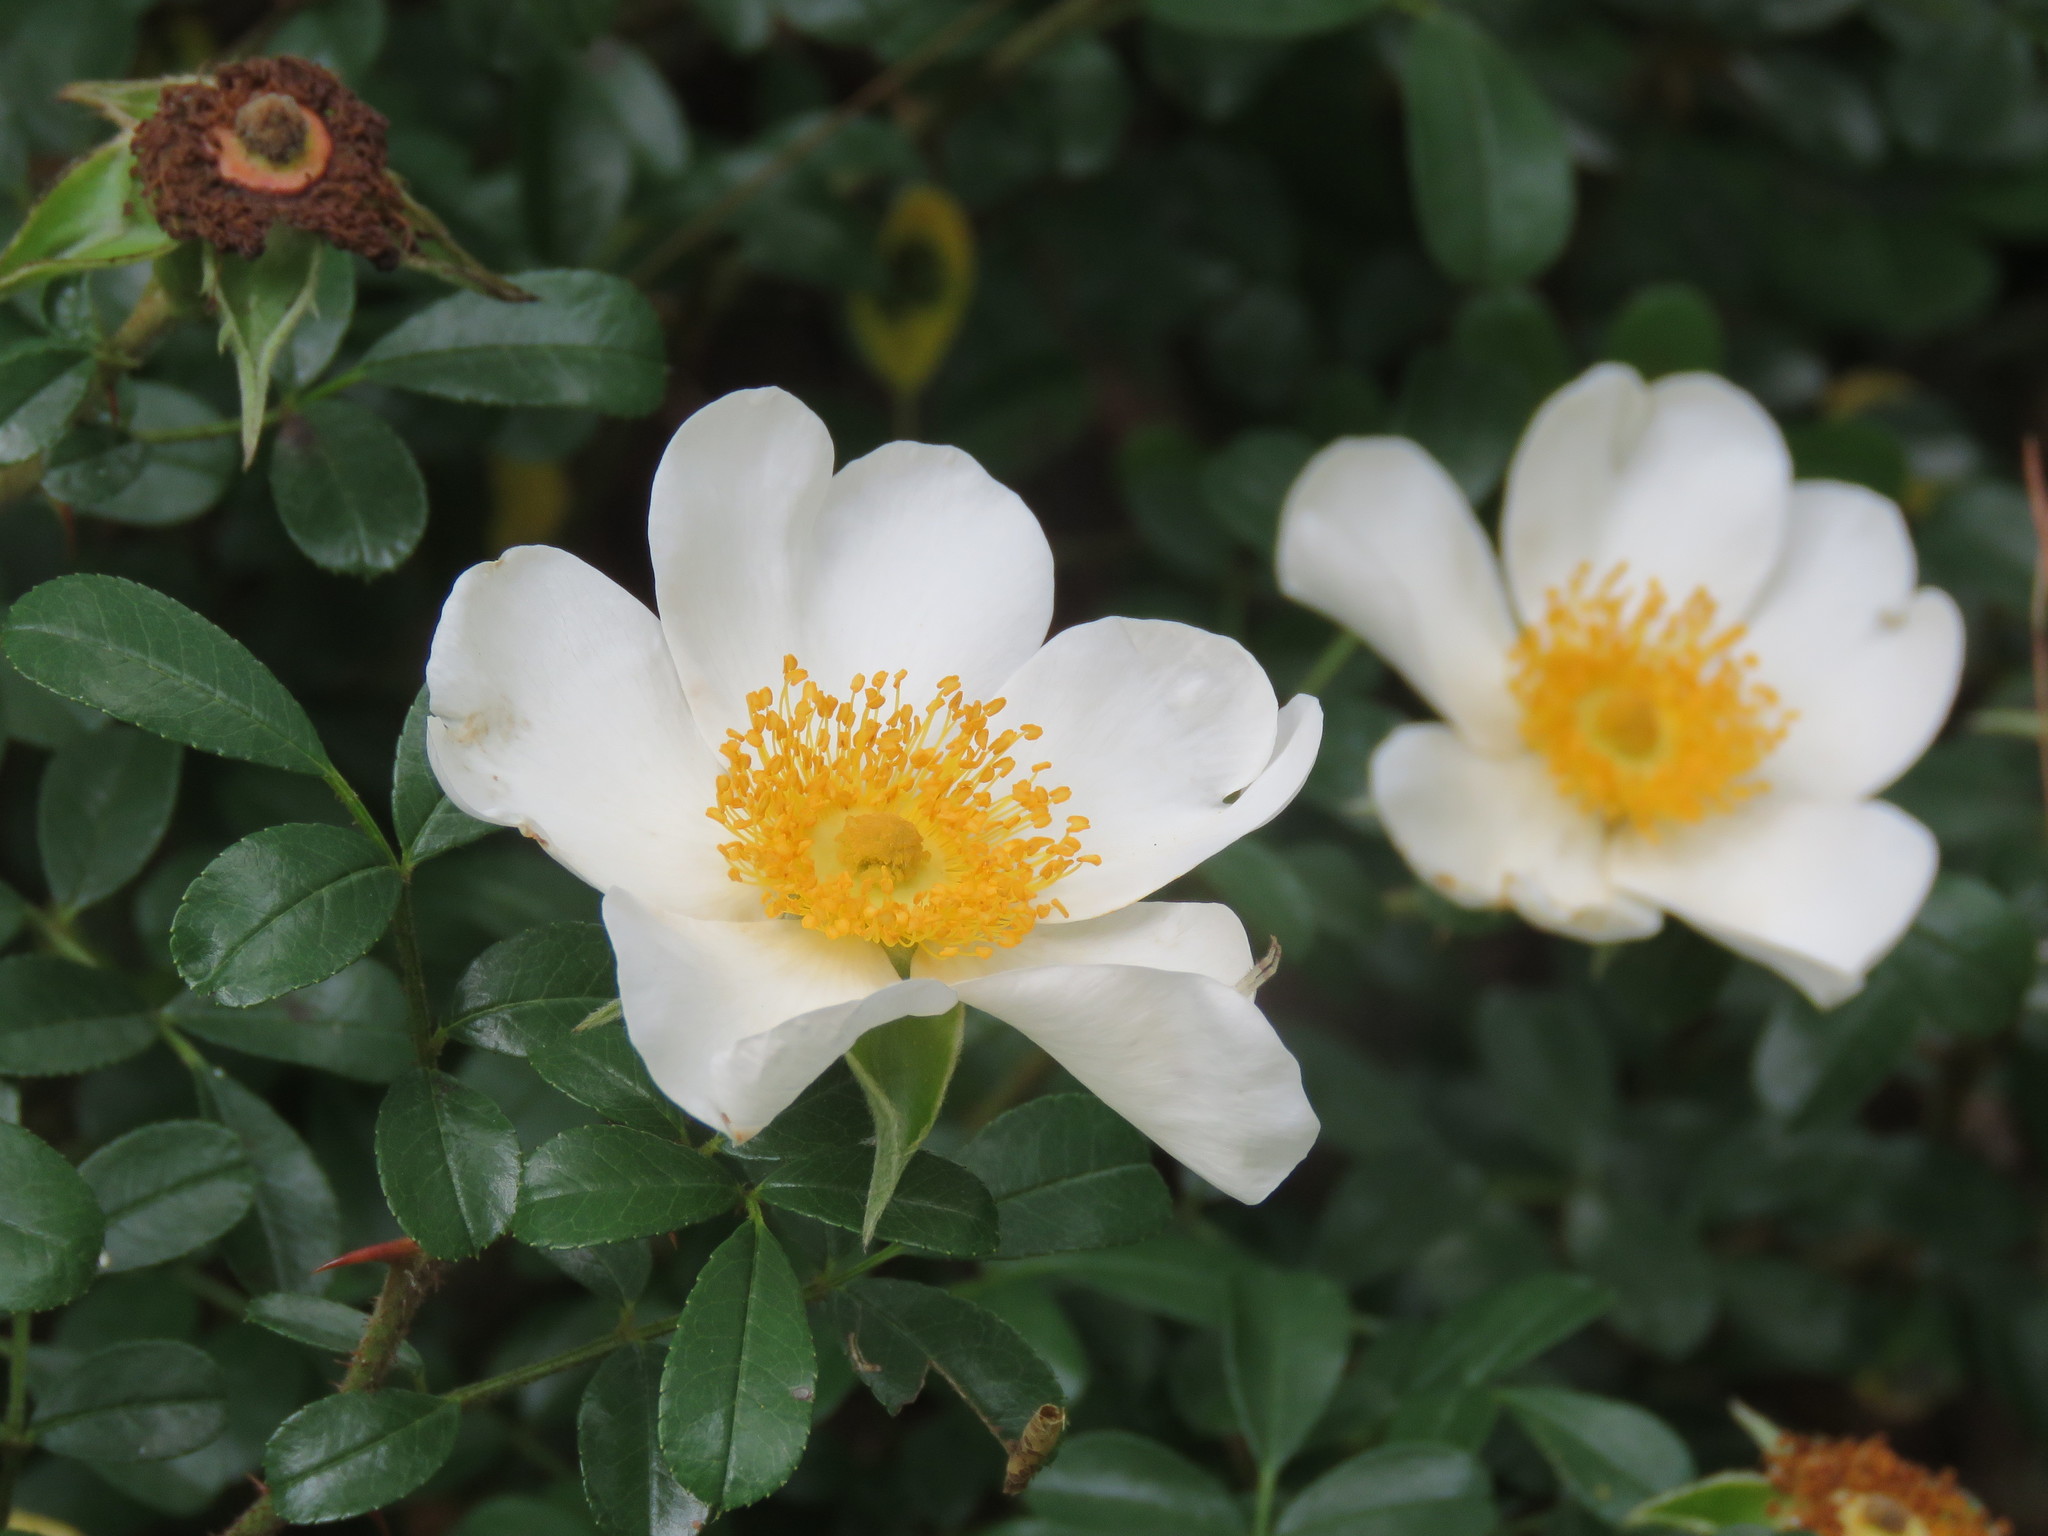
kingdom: Plantae
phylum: Tracheophyta
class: Magnoliopsida
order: Rosales
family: Rosaceae
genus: Rosa
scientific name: Rosa bracteata
